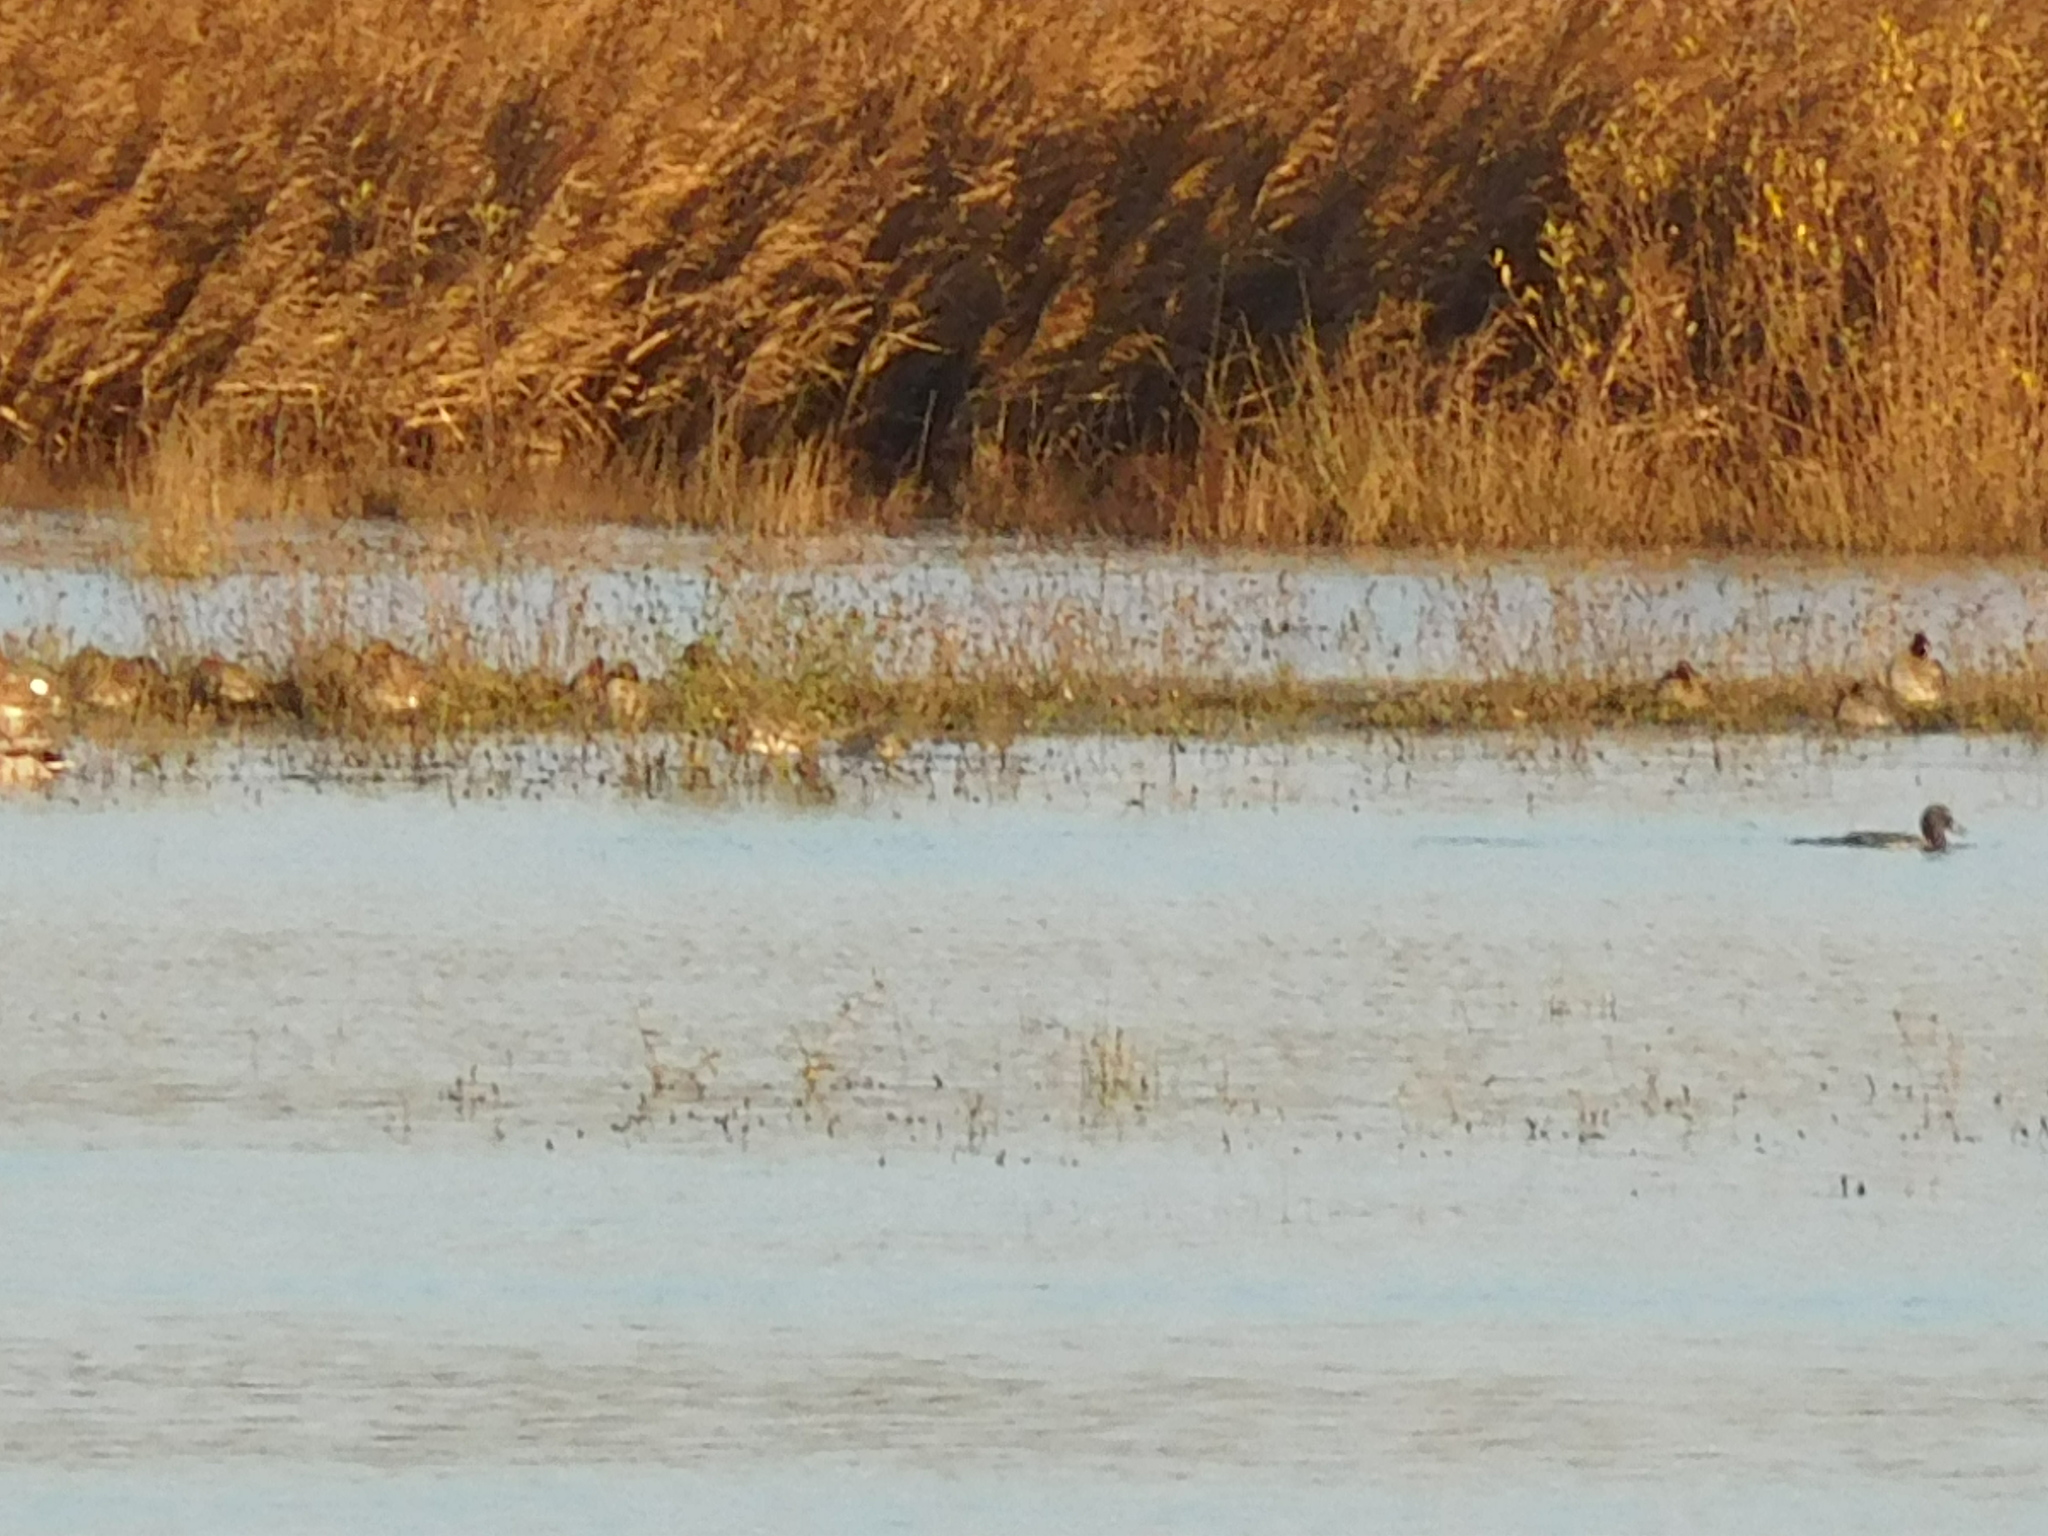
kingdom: Animalia
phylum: Chordata
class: Aves
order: Anseriformes
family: Anatidae
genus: Aythya
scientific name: Aythya fuligula
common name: Tufted duck
